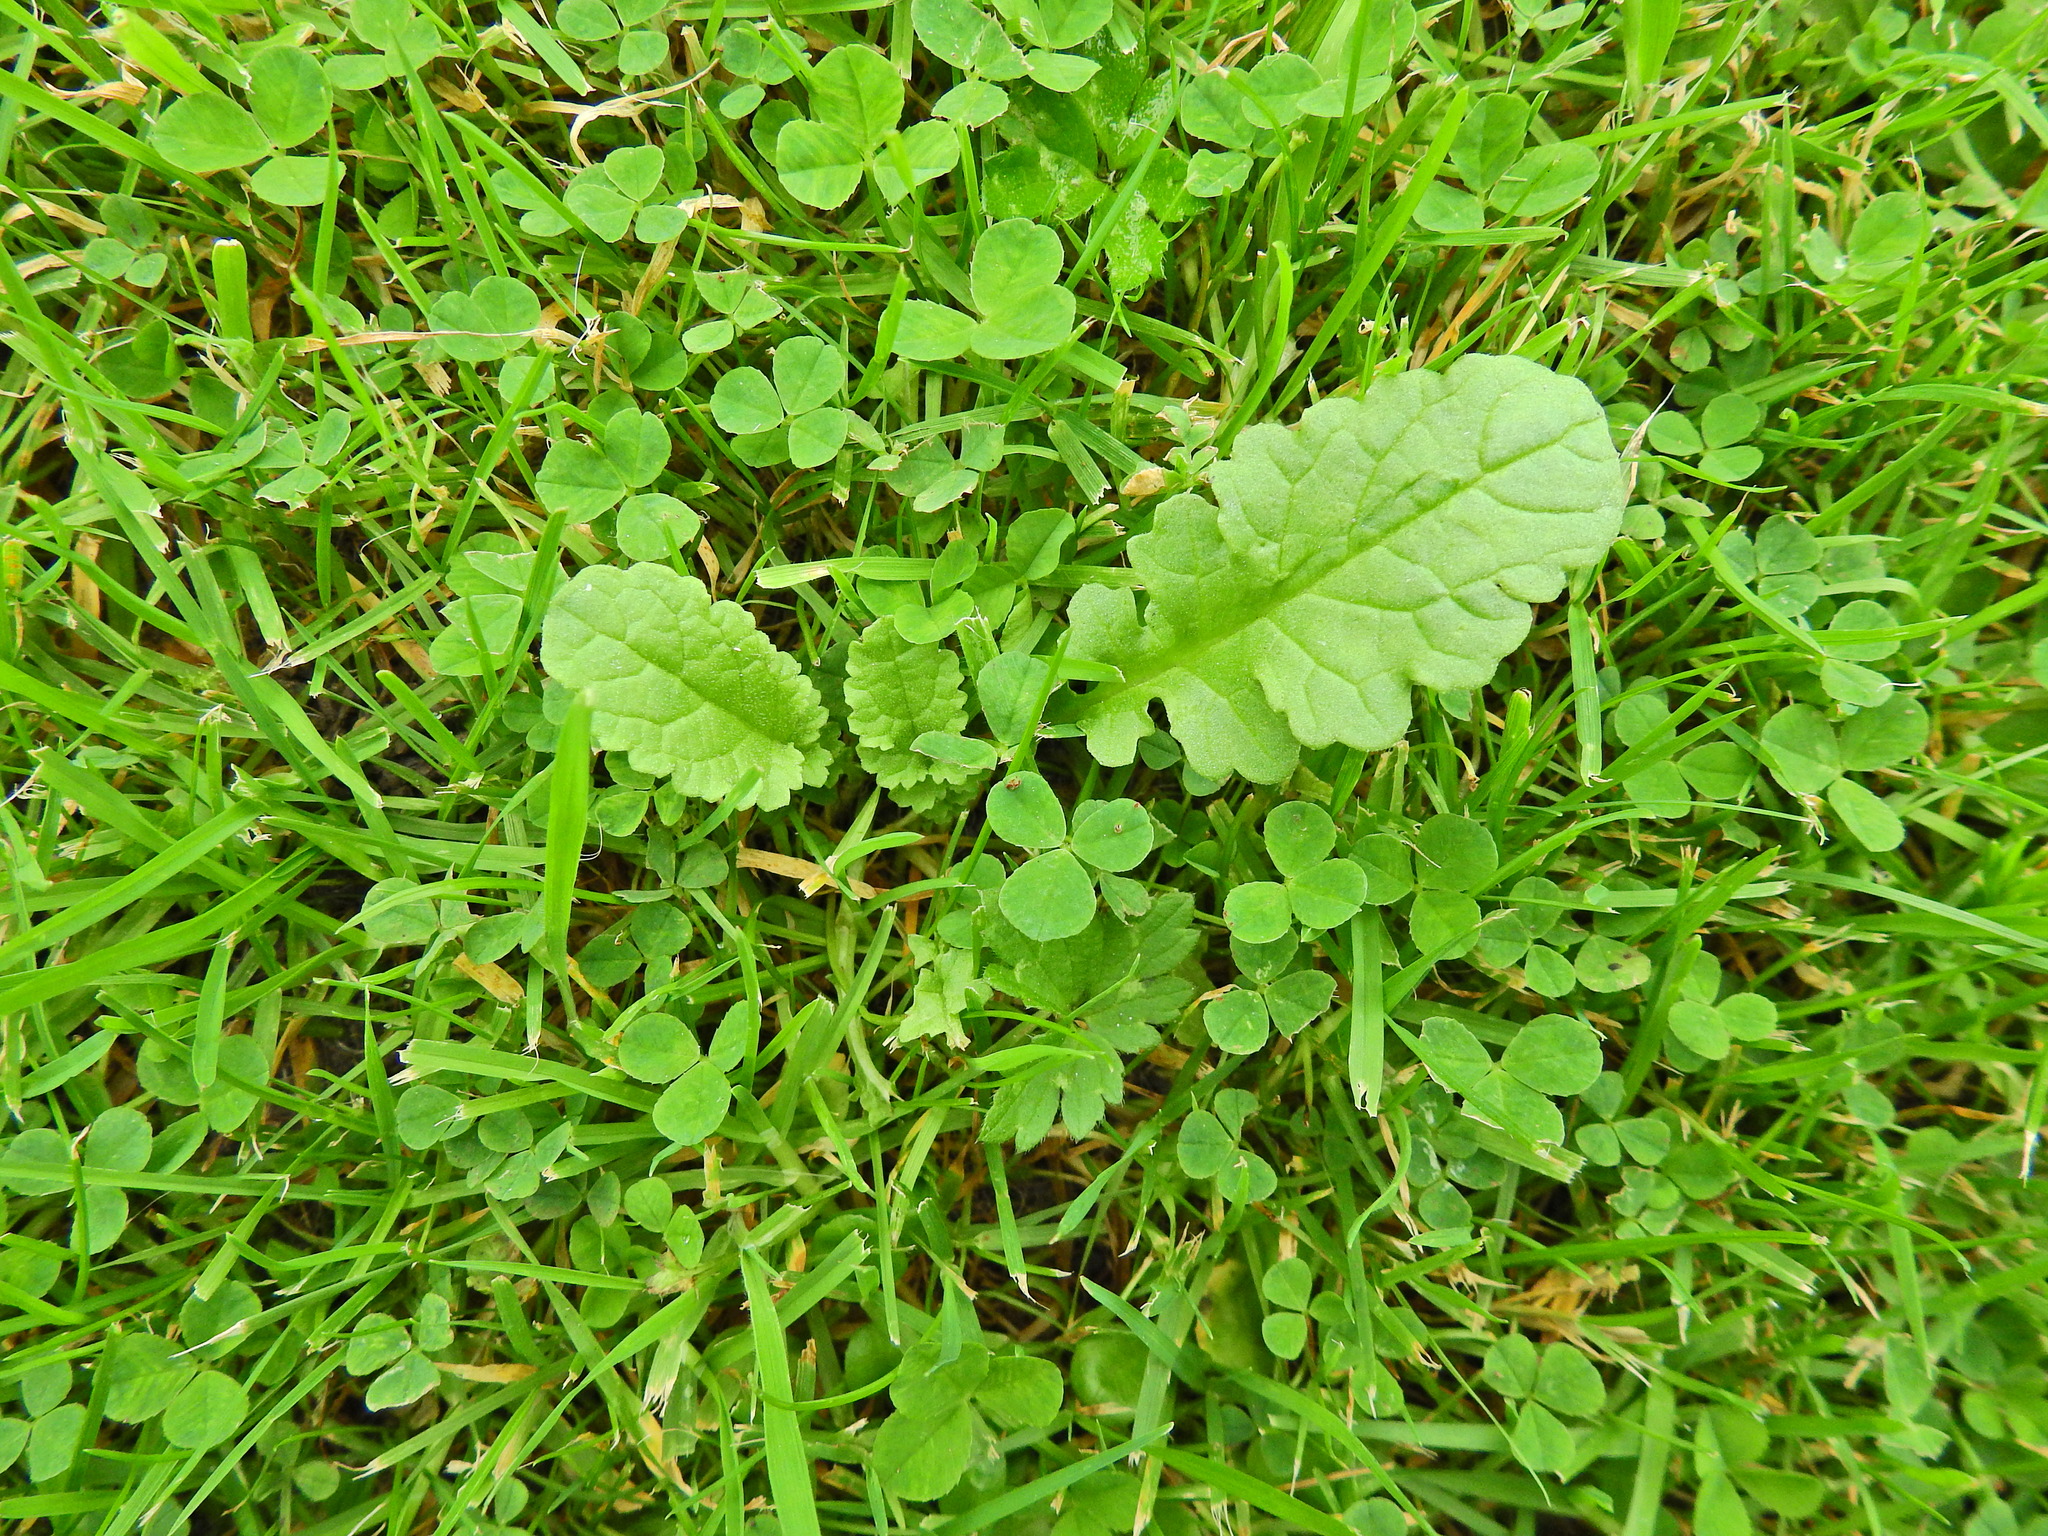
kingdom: Plantae
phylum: Tracheophyta
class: Magnoliopsida
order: Asterales
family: Asteraceae
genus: Jacobaea
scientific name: Jacobaea vulgaris
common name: Stinking willie
